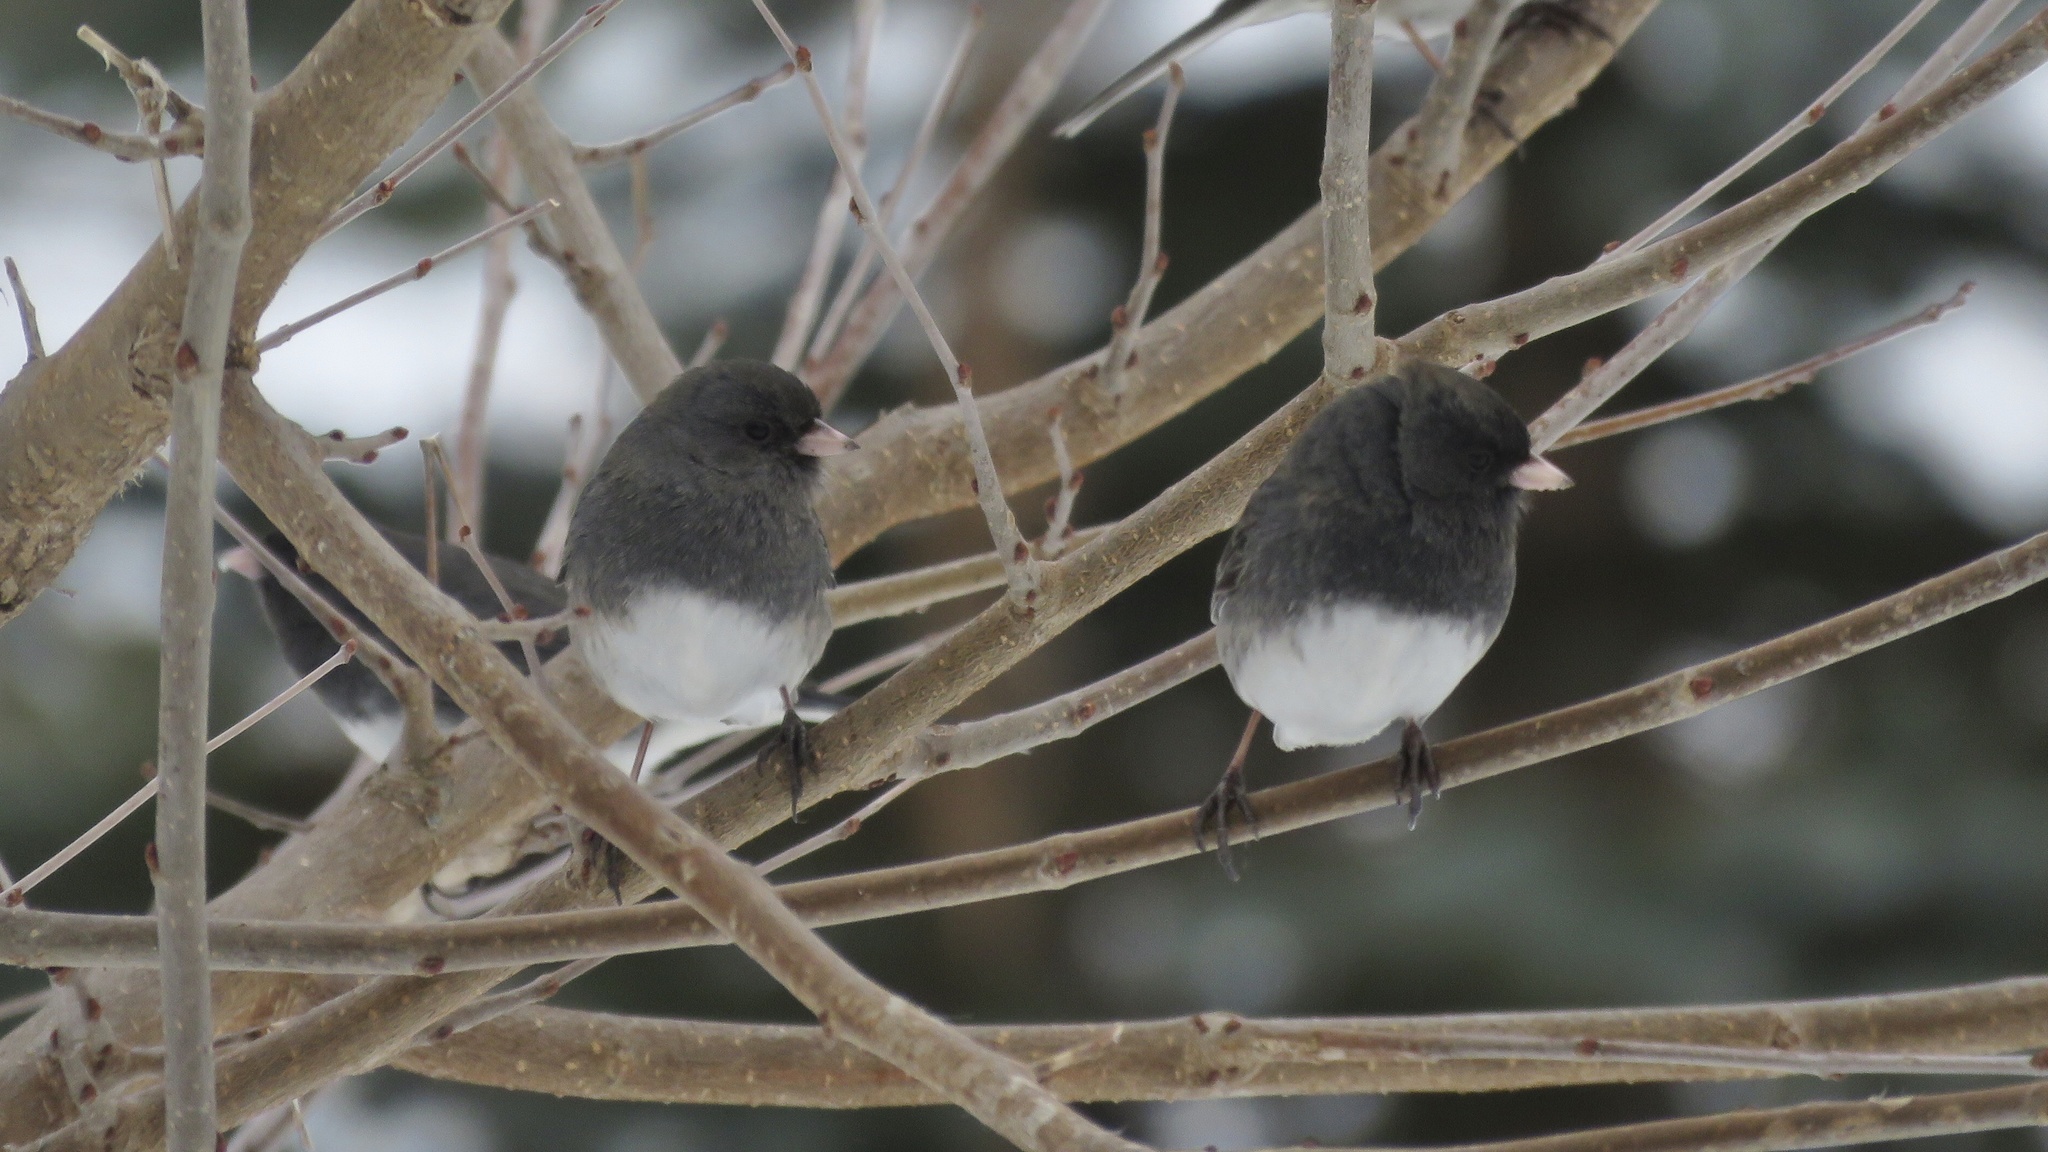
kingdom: Animalia
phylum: Chordata
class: Aves
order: Passeriformes
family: Passerellidae
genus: Junco
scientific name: Junco hyemalis
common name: Dark-eyed junco
